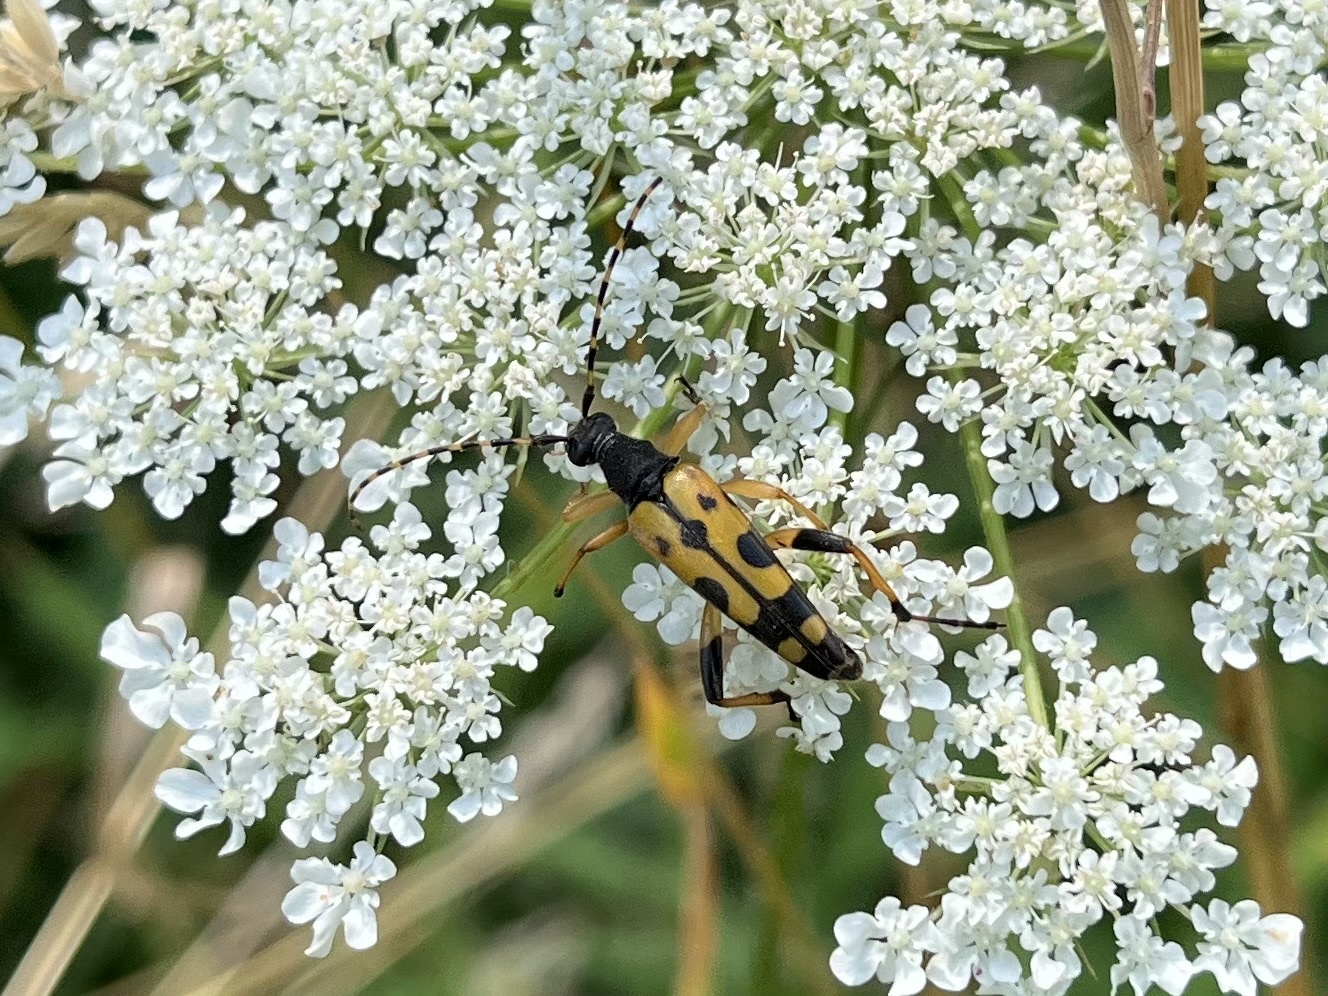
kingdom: Animalia
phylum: Arthropoda
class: Insecta
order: Coleoptera
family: Cerambycidae
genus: Rutpela
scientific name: Rutpela maculata
